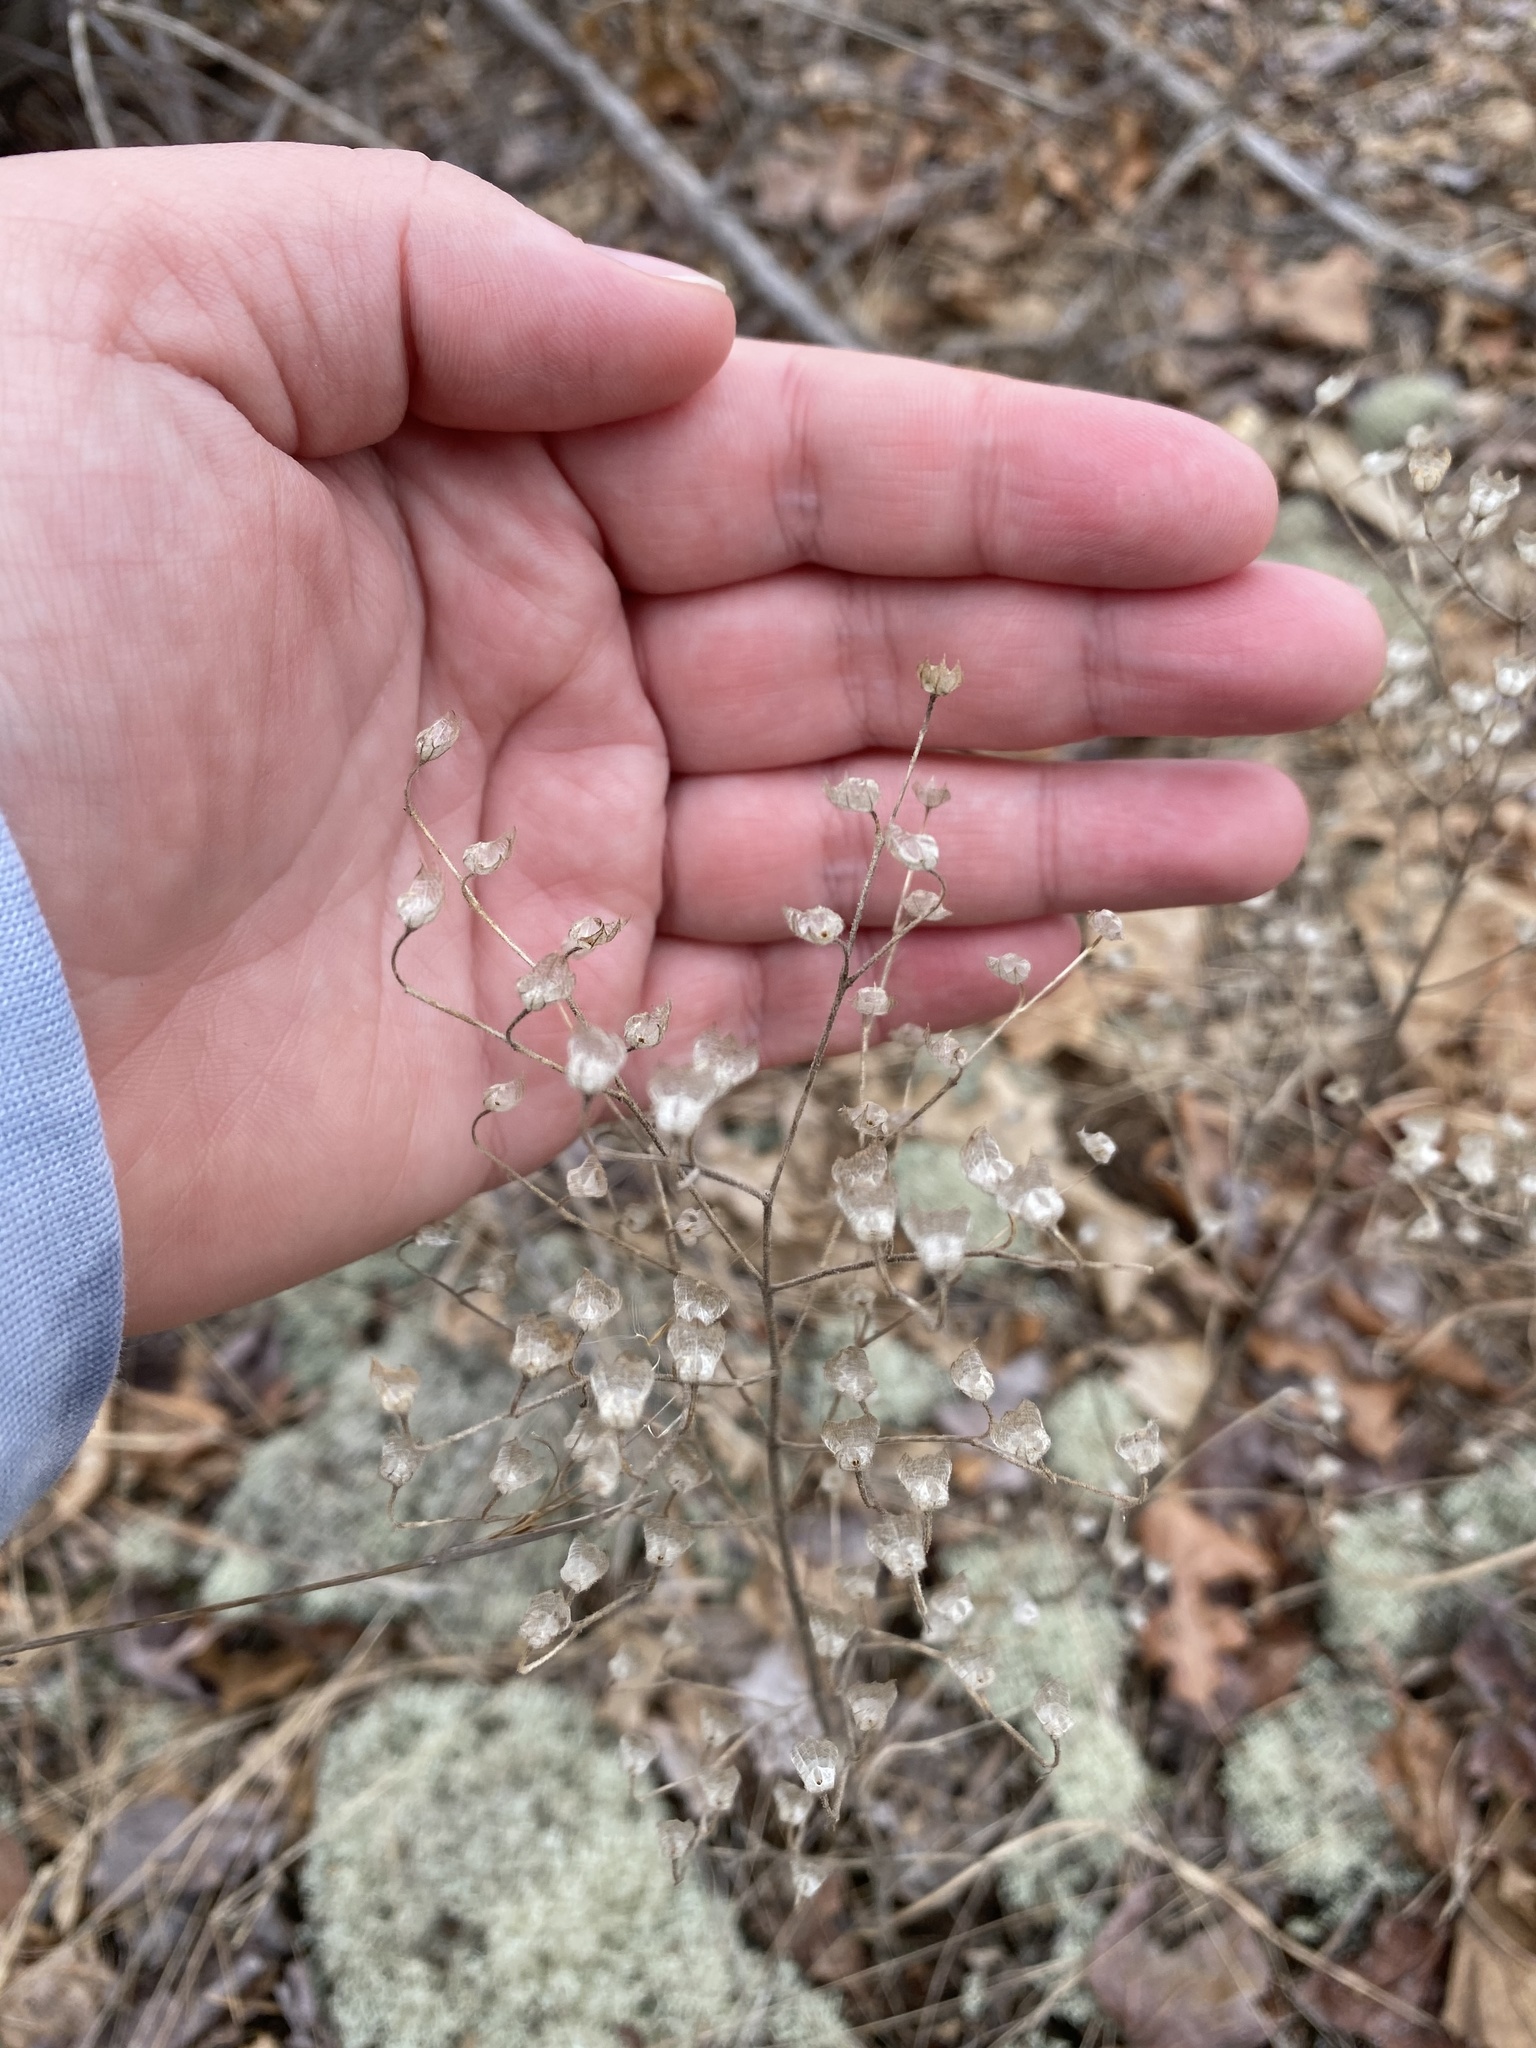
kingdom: Plantae
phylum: Tracheophyta
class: Magnoliopsida
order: Lamiales
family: Lamiaceae
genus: Trichostema
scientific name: Trichostema dichotomum
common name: Bastard pennyroyal
